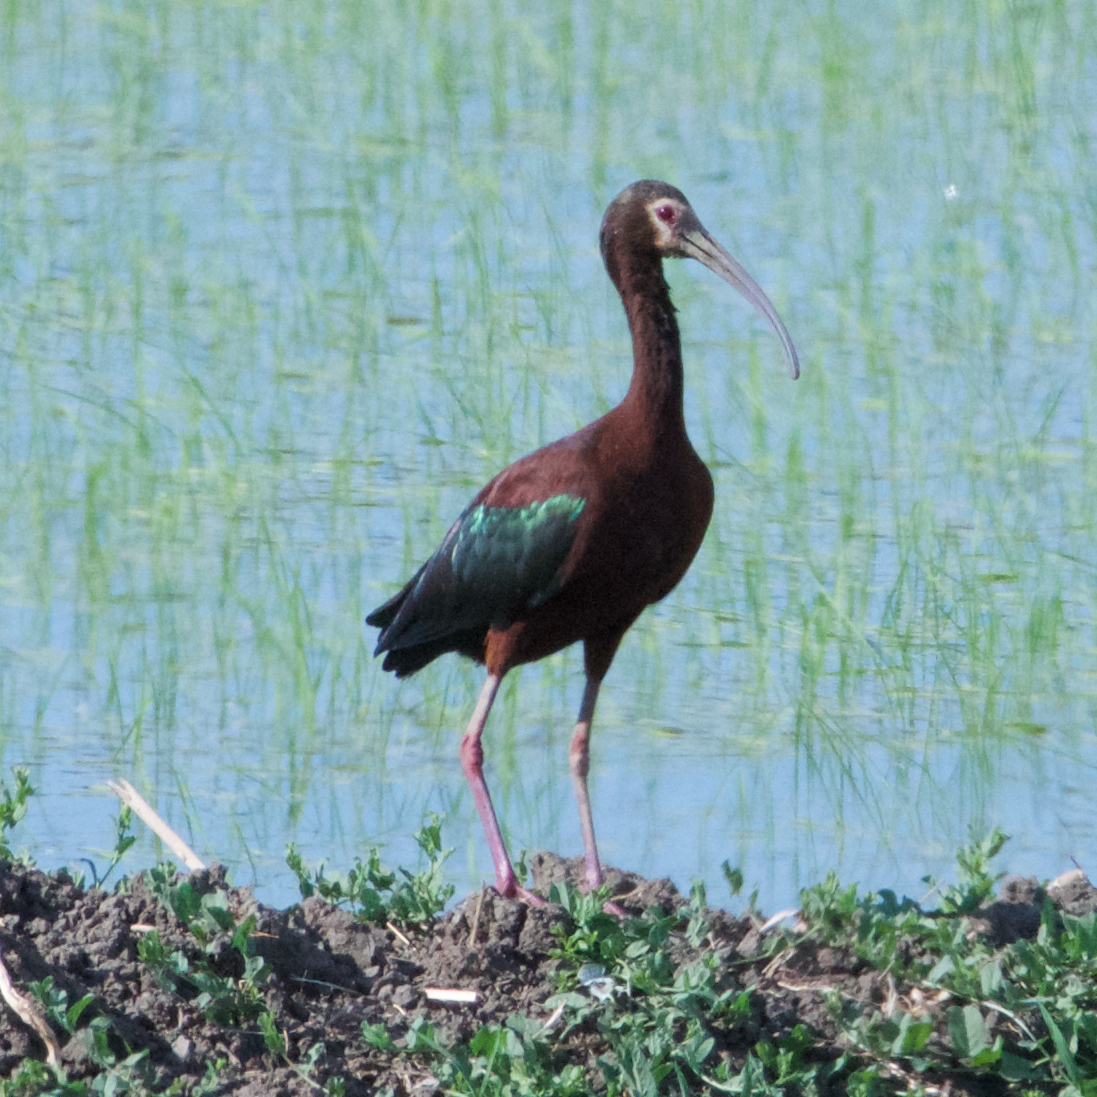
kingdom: Animalia
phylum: Chordata
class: Aves
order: Pelecaniformes
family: Threskiornithidae
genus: Plegadis
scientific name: Plegadis chihi
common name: White-faced ibis
